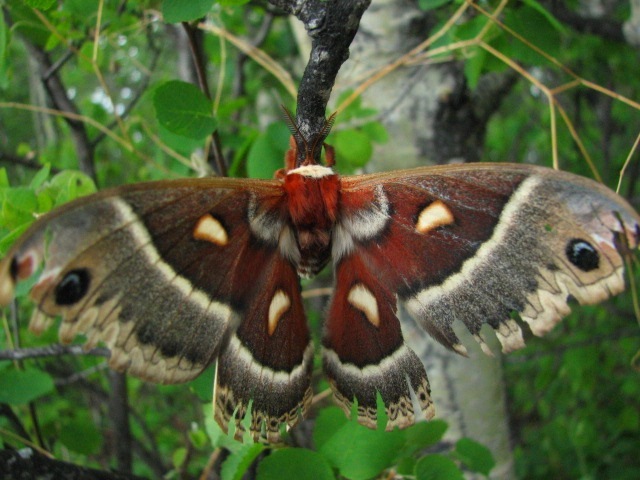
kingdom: Animalia
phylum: Arthropoda
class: Insecta
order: Lepidoptera
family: Saturniidae
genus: Hyalophora
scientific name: Hyalophora gloveri
